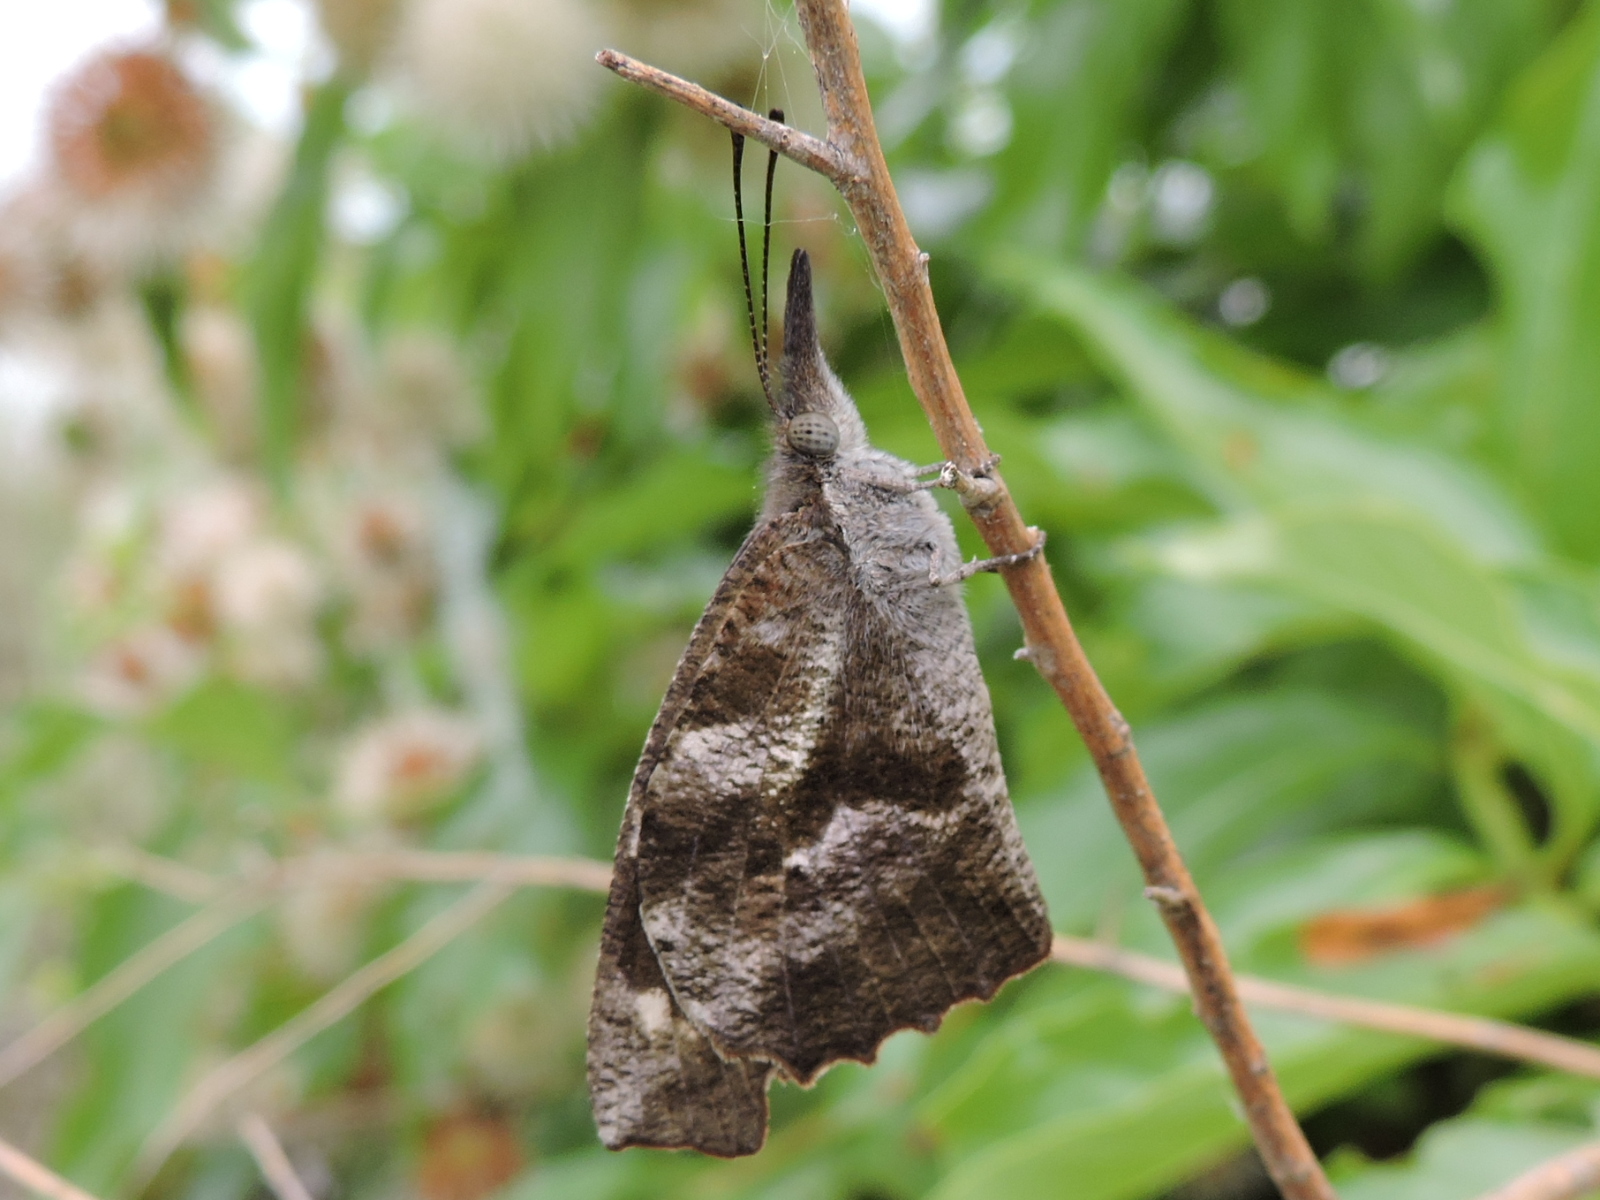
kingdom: Animalia
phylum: Arthropoda
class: Insecta
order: Lepidoptera
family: Nymphalidae
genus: Libytheana
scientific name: Libytheana carinenta
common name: American snout
